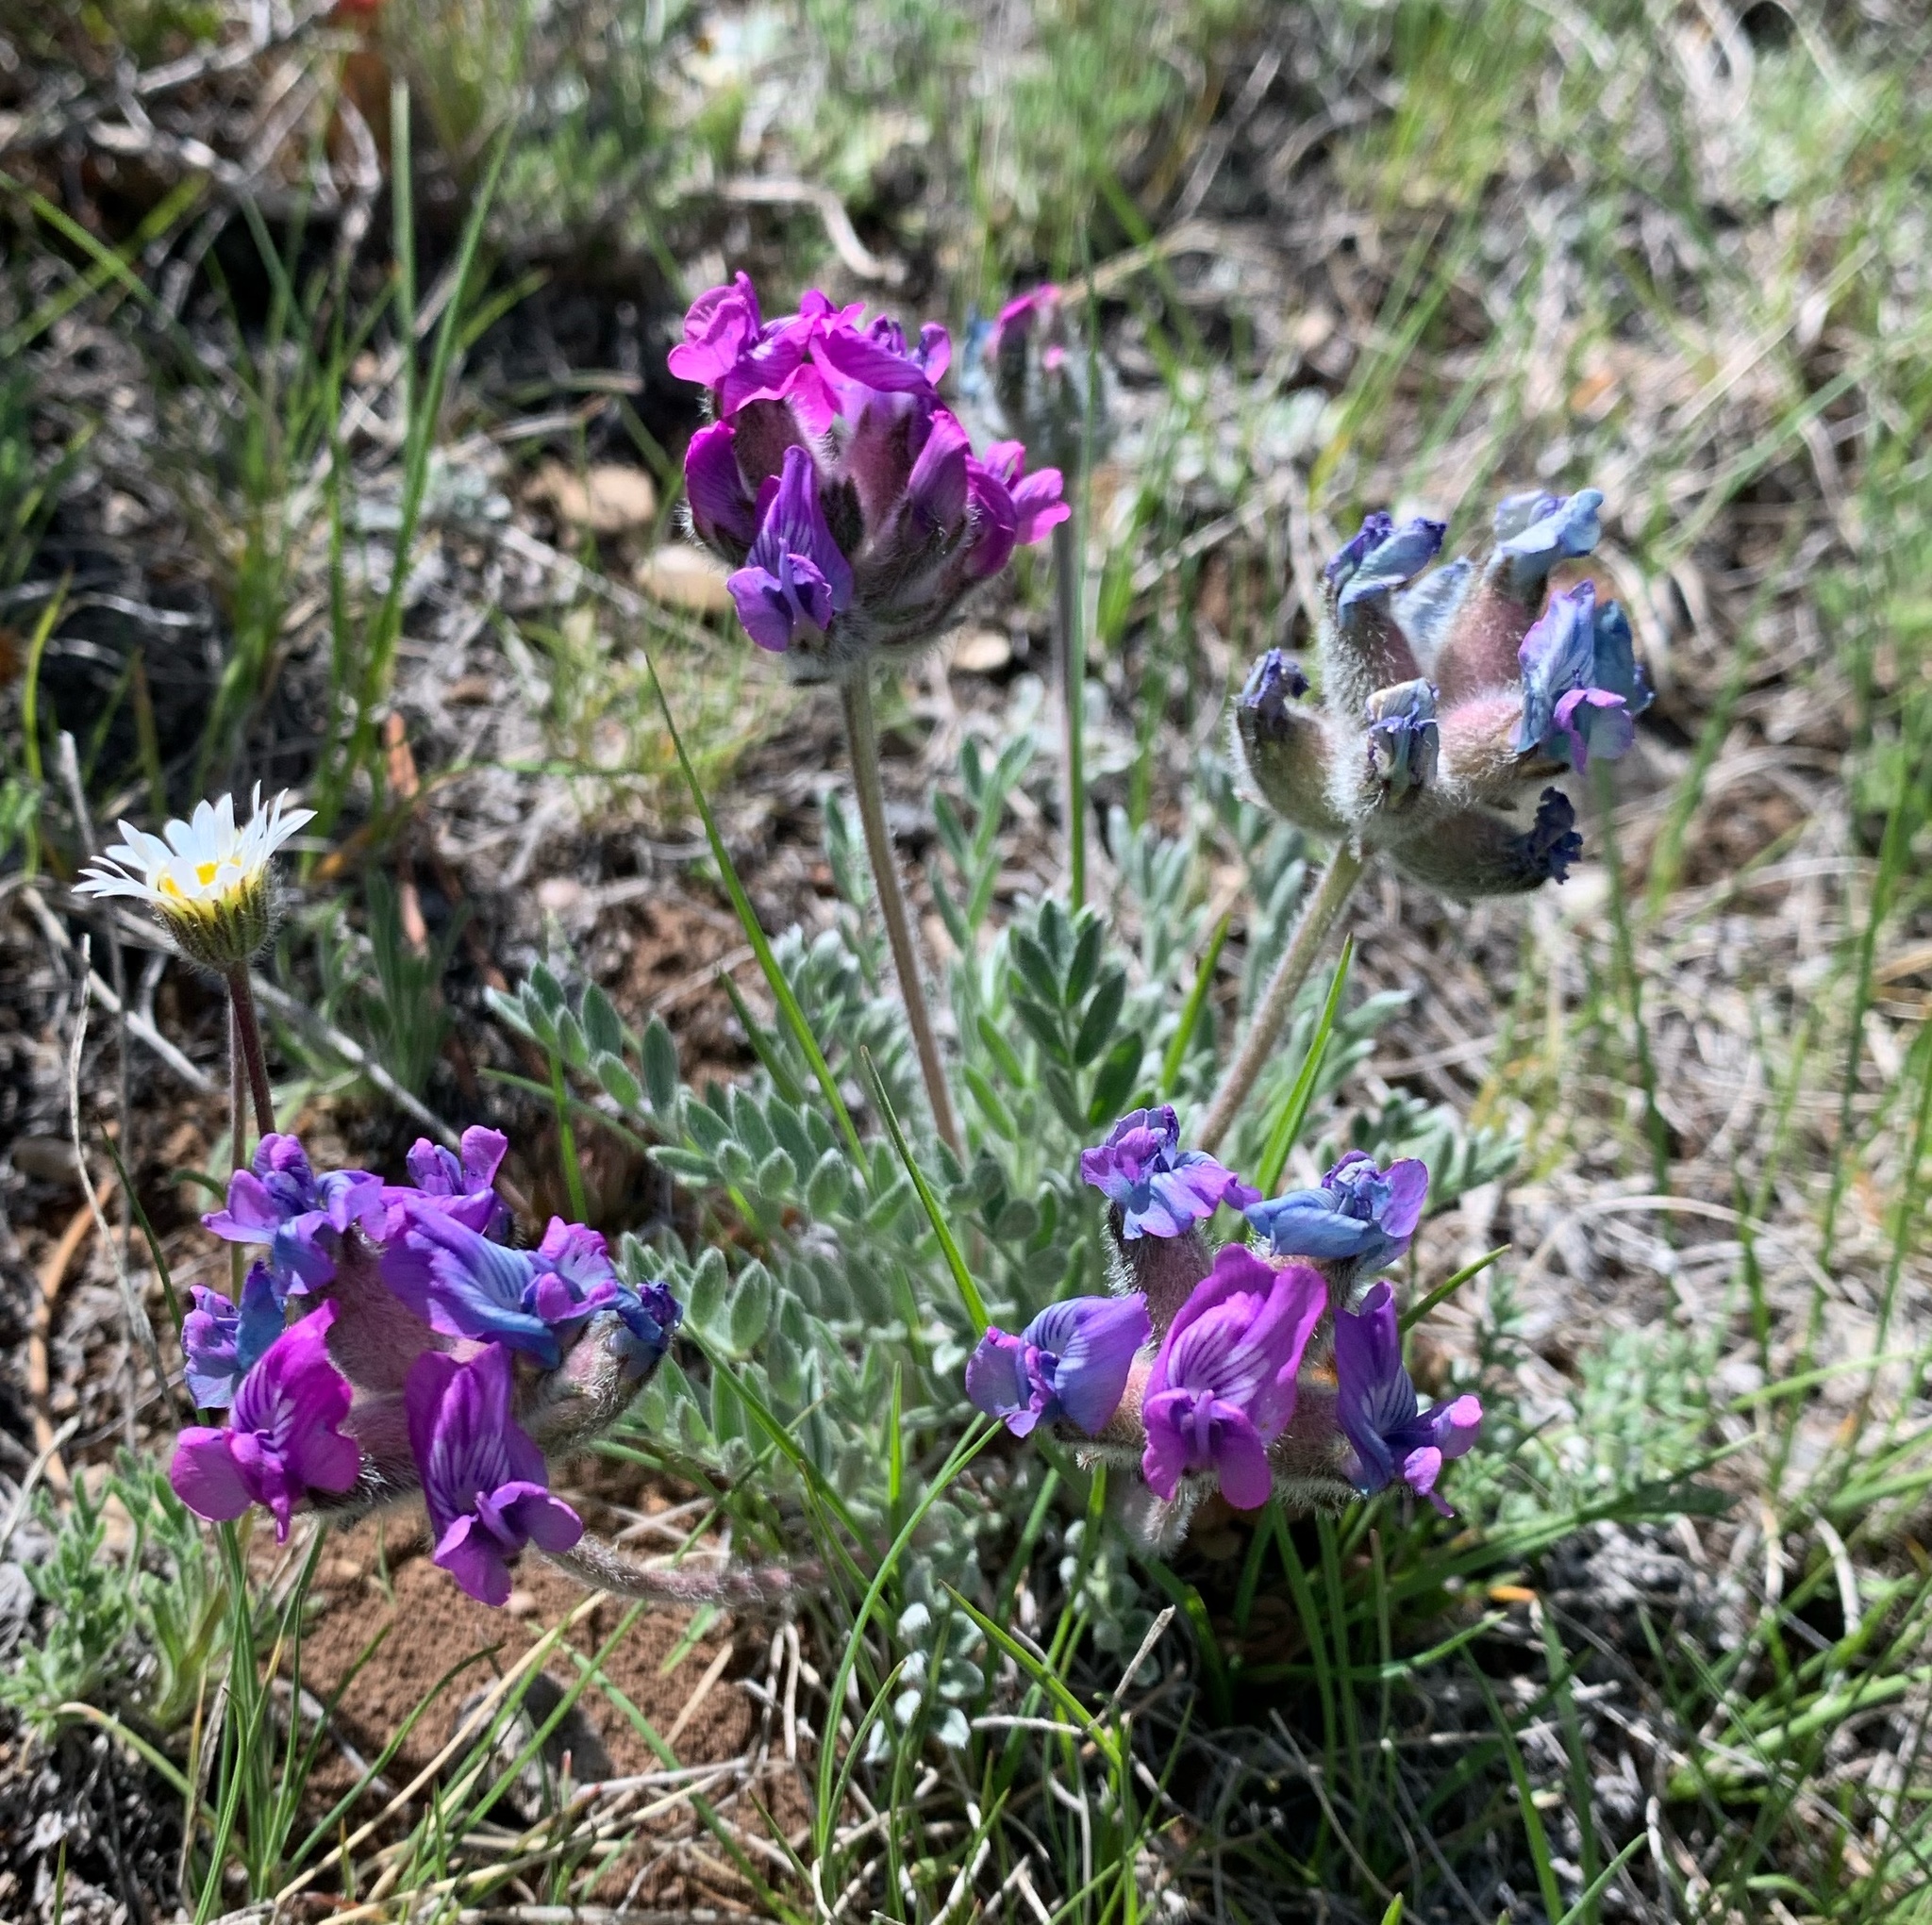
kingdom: Plantae
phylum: Tracheophyta
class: Magnoliopsida
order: Fabales
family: Fabaceae
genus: Oxytropis
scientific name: Oxytropis lagopus
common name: Hare's-foot locoweed
